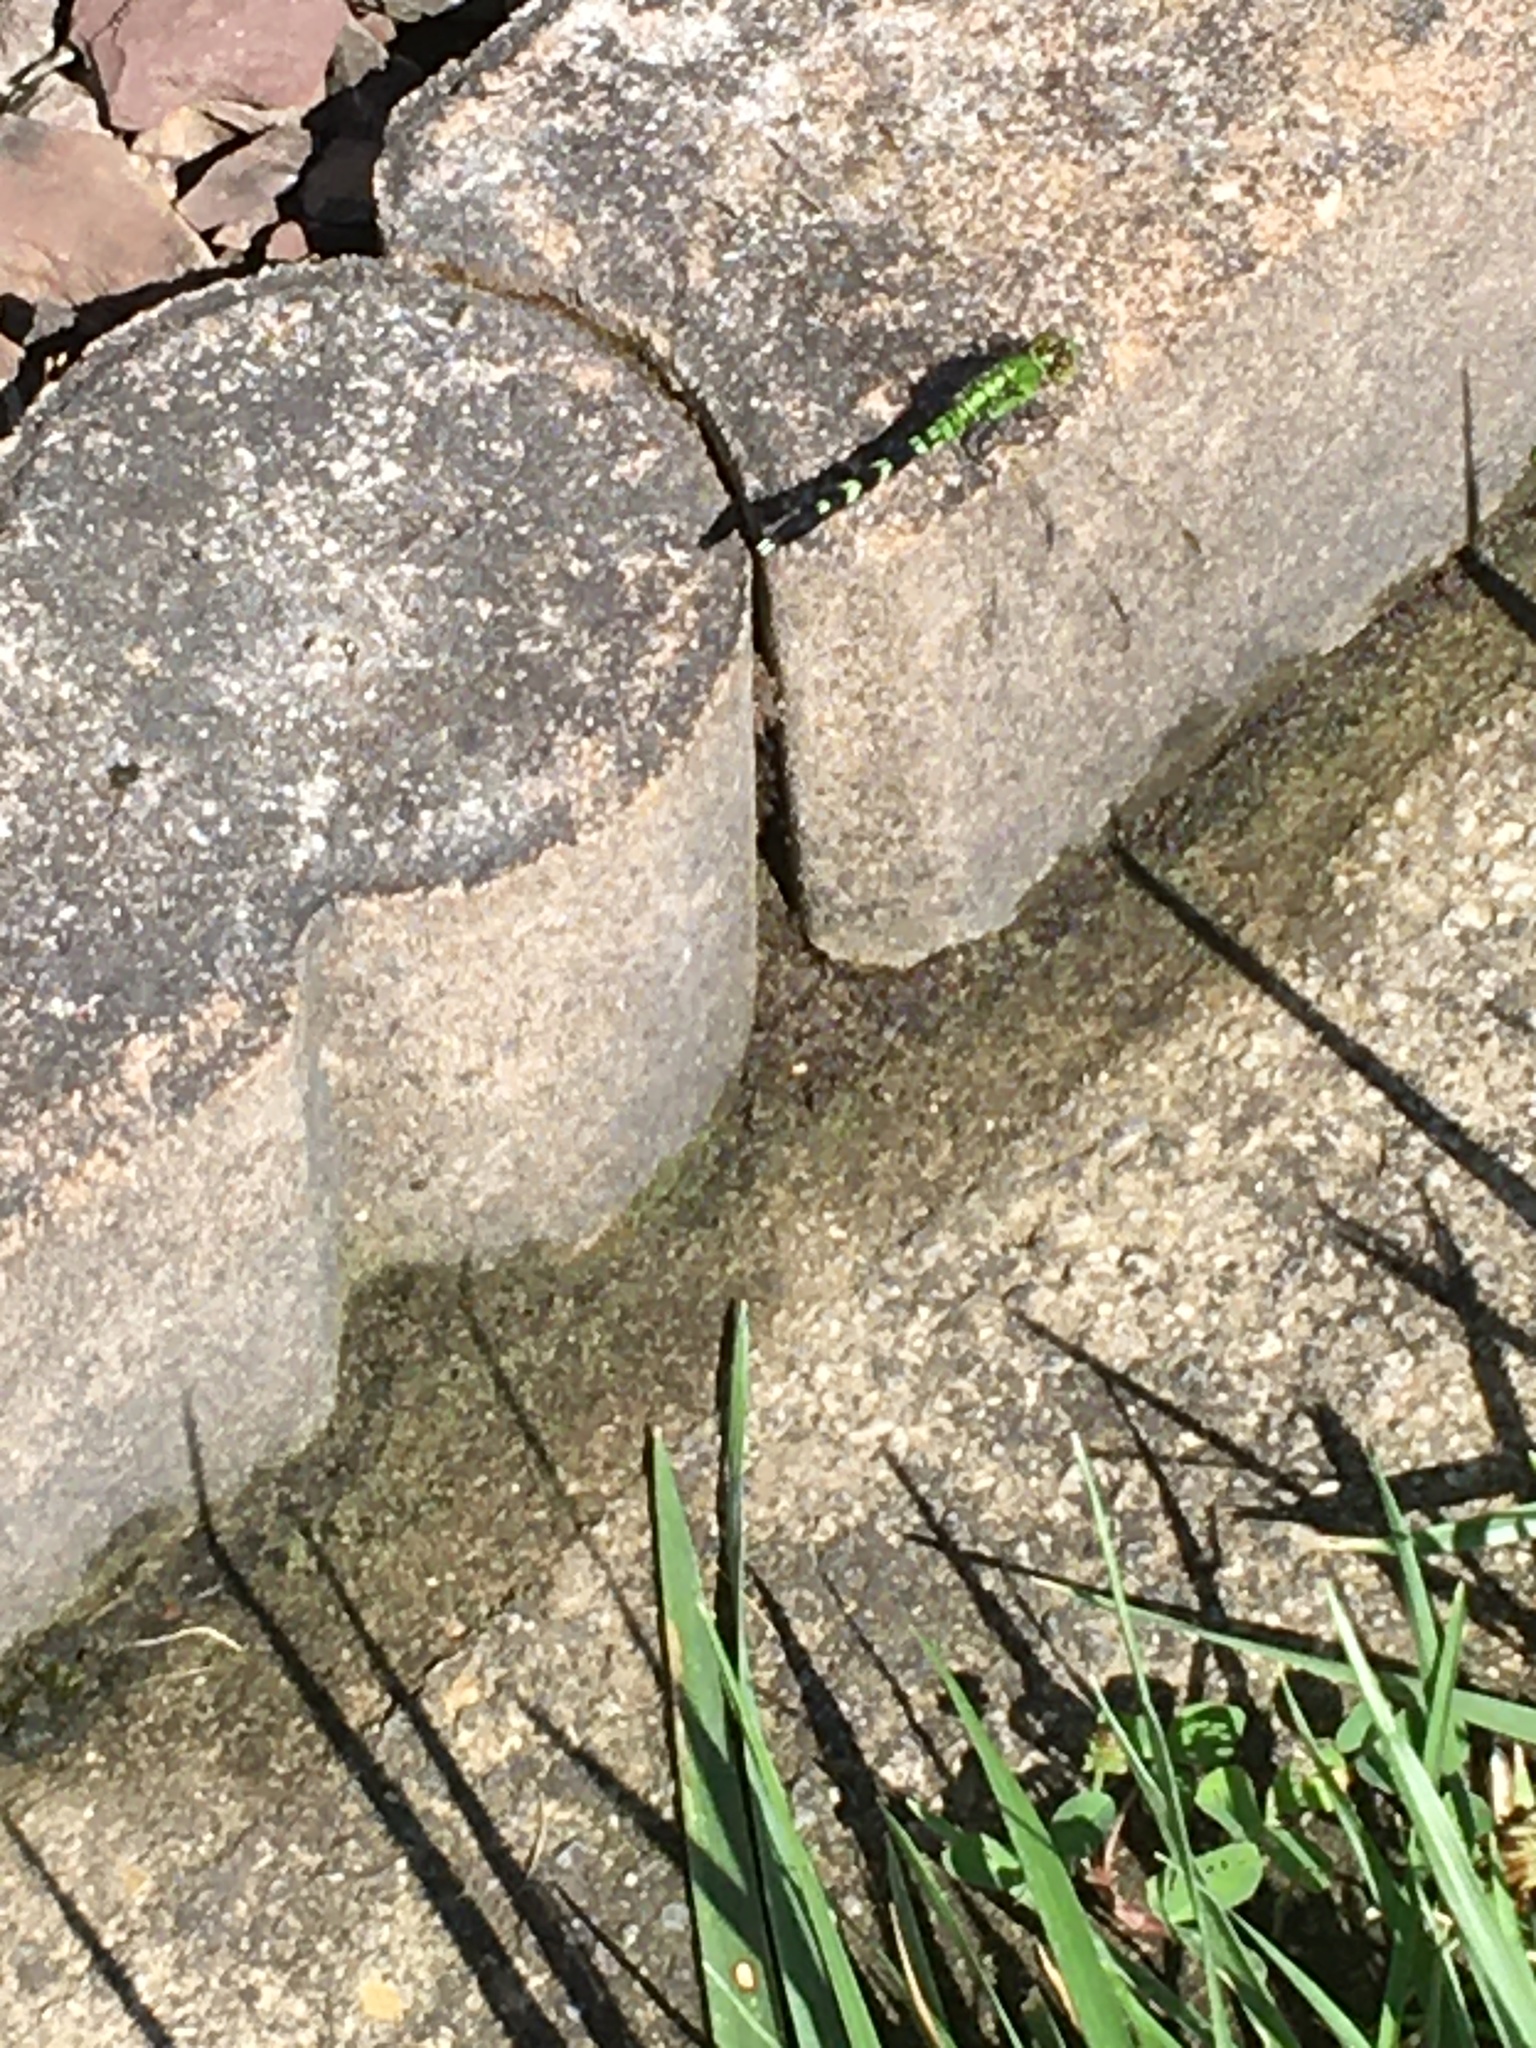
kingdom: Animalia
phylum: Arthropoda
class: Insecta
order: Odonata
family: Libellulidae
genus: Erythemis
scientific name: Erythemis simplicicollis
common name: Eastern pondhawk
